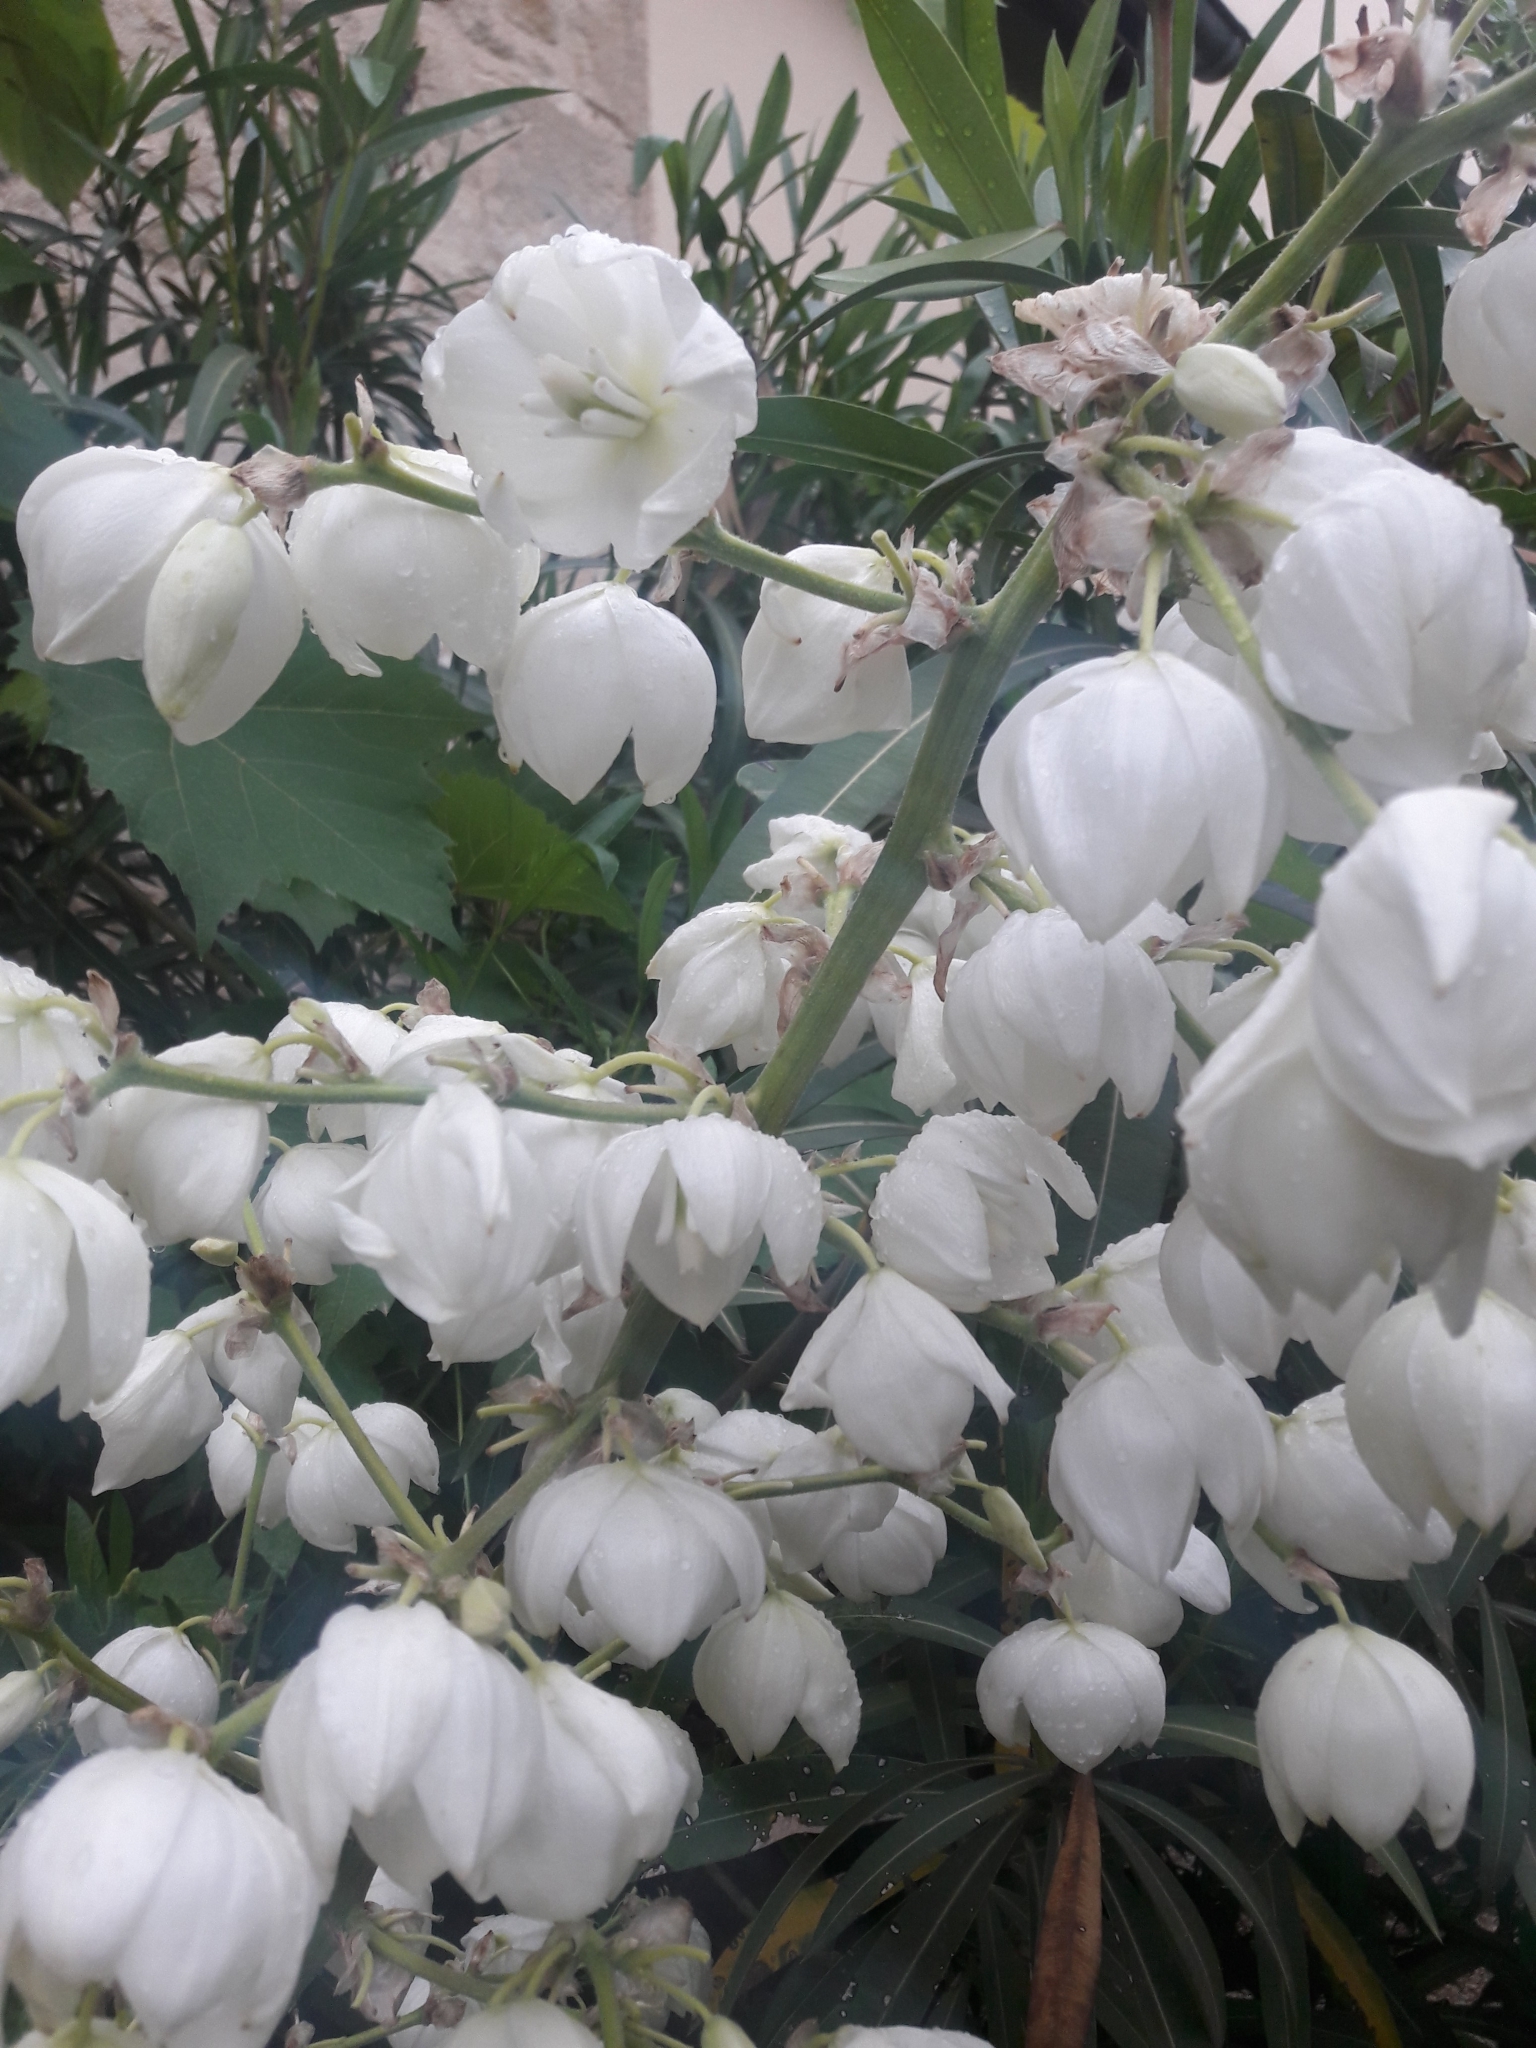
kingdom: Plantae
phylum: Tracheophyta
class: Liliopsida
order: Asparagales
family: Asparagaceae
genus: Yucca
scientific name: Yucca gloriosa
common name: Spanish-dagger
